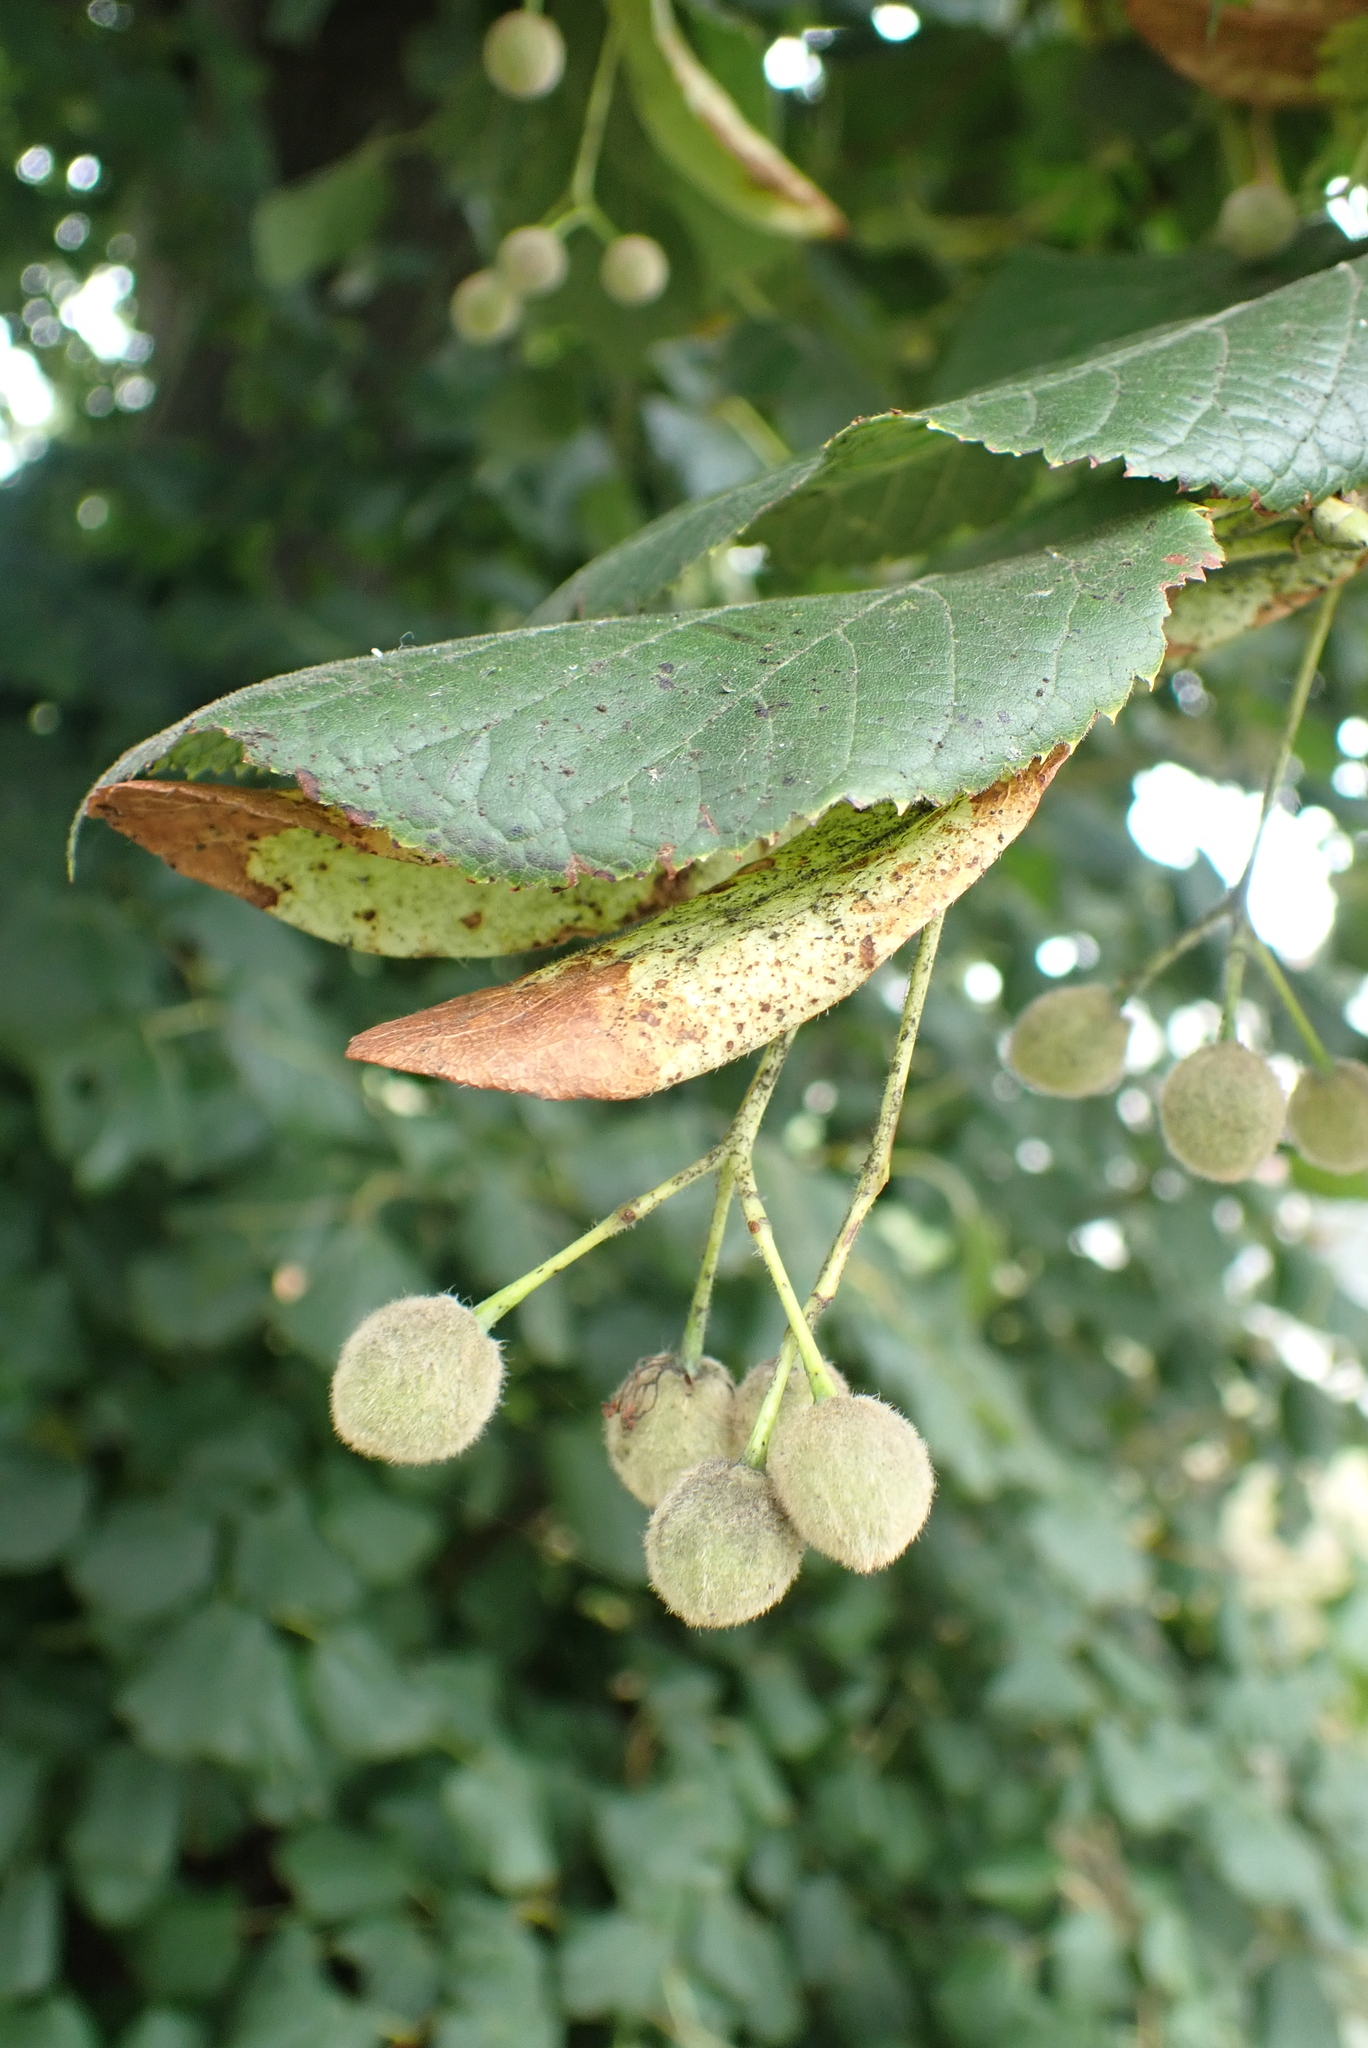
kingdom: Plantae
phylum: Tracheophyta
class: Magnoliopsida
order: Malvales
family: Malvaceae
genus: Tilia
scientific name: Tilia europaea
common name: European linden
